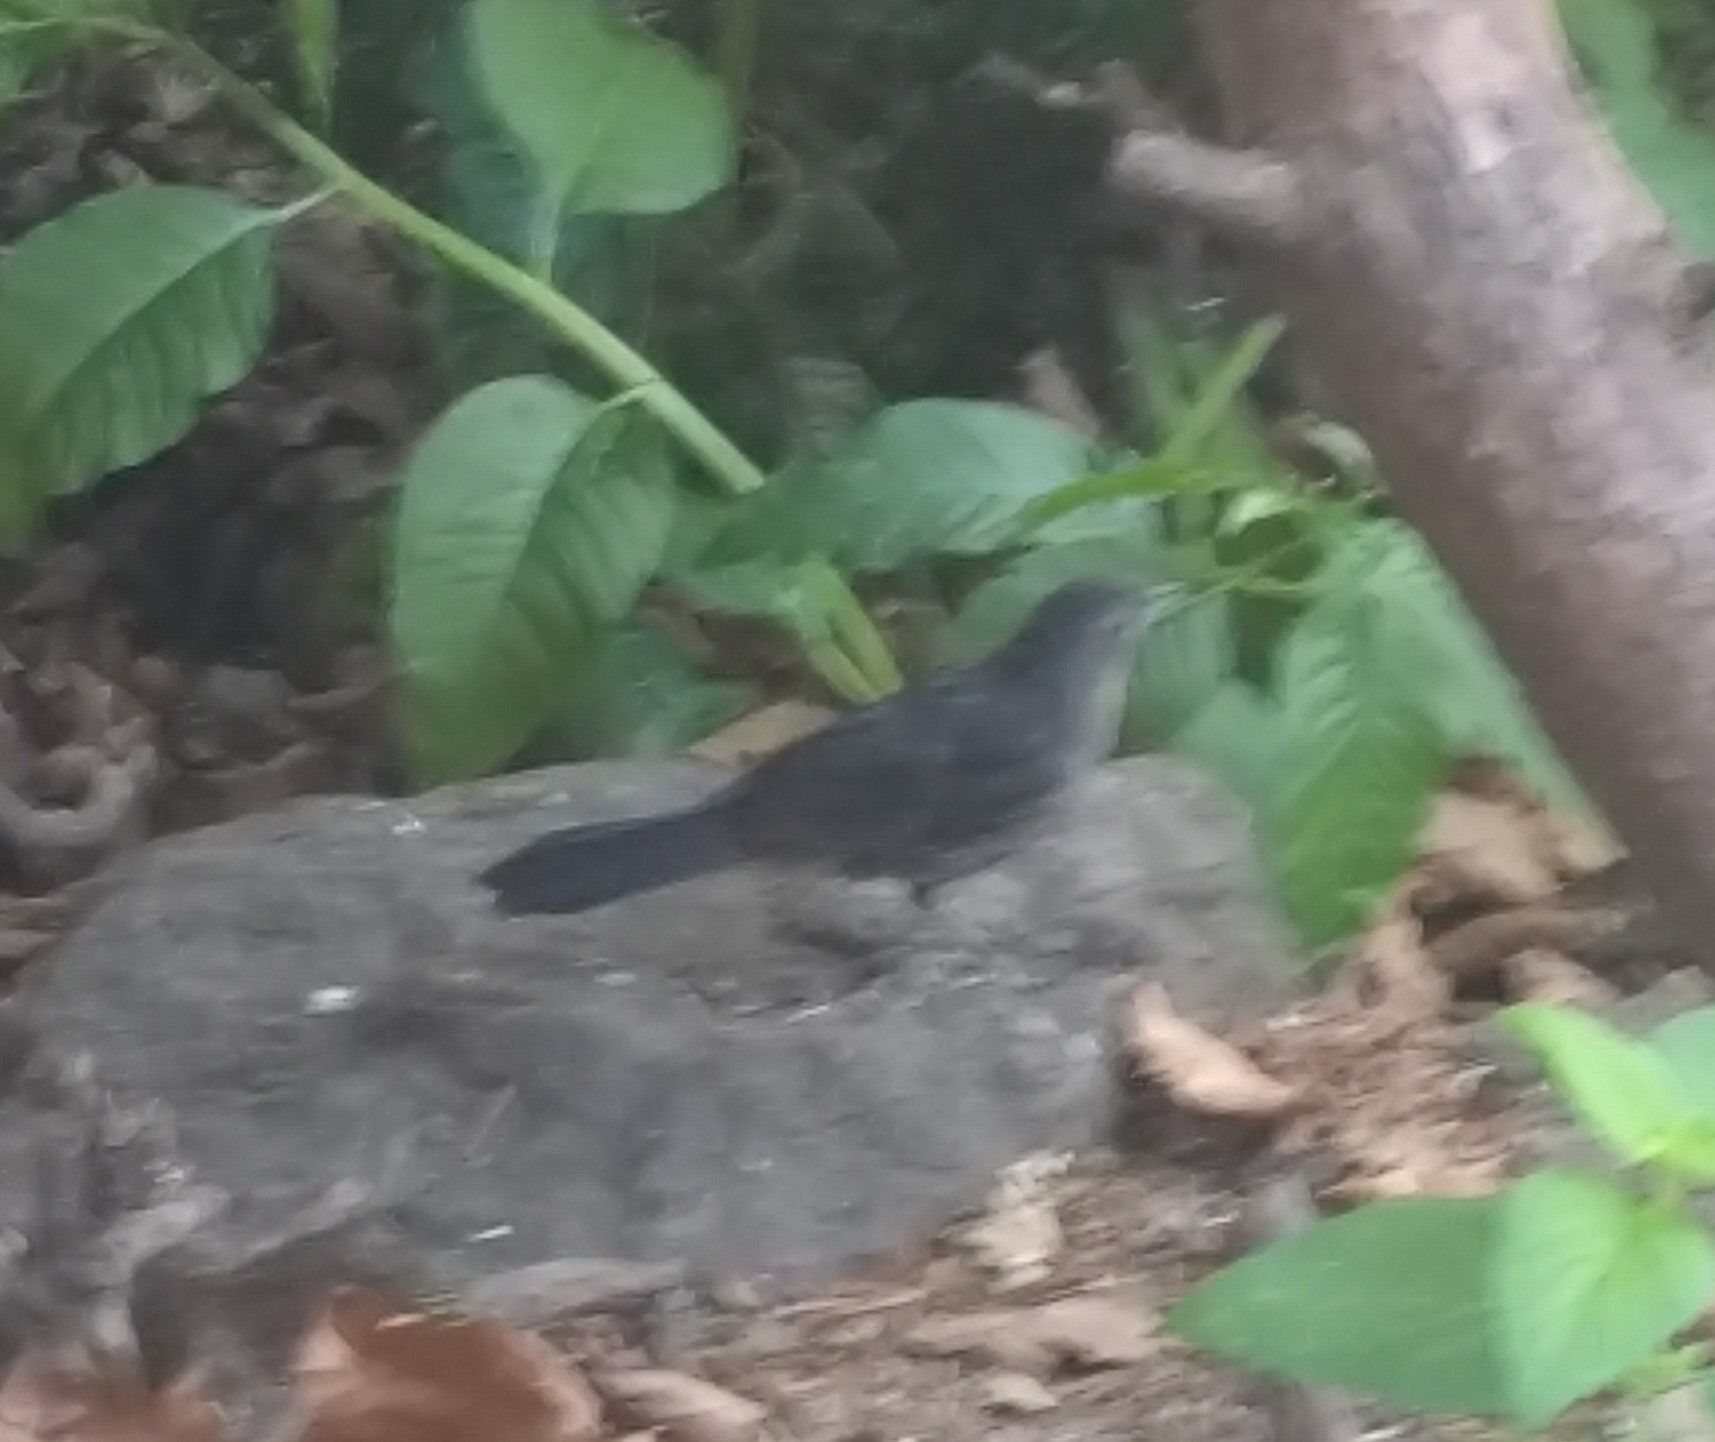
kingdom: Animalia
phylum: Chordata
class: Aves
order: Passeriformes
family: Mimidae
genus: Dumetella
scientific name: Dumetella carolinensis
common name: Gray catbird
